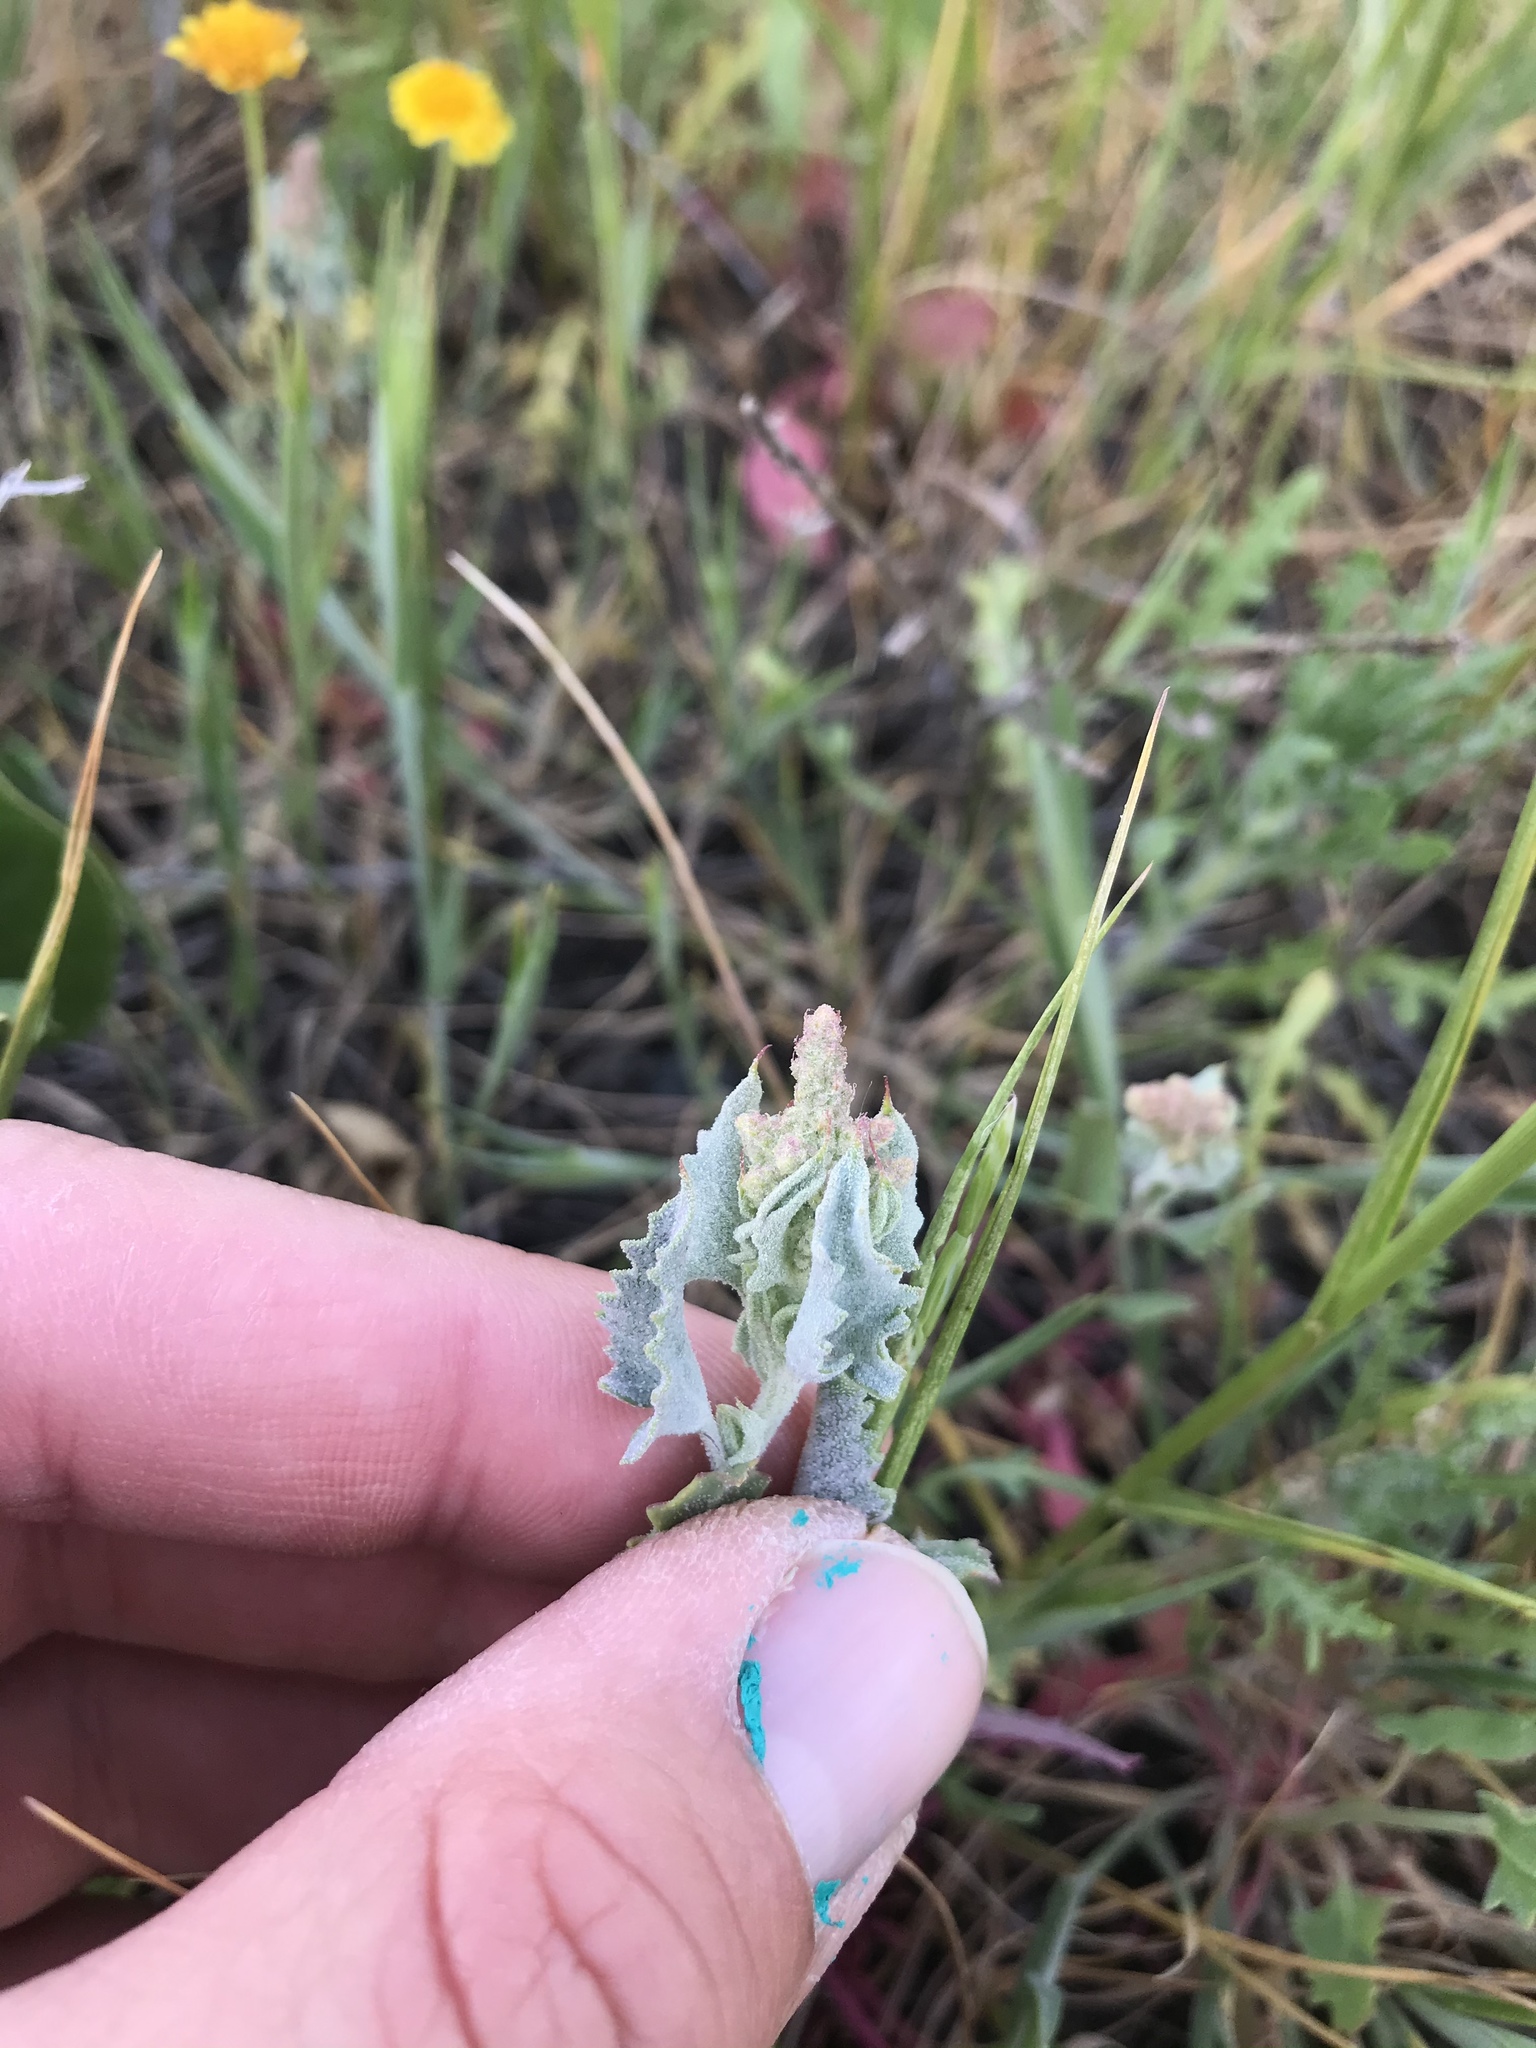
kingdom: Plantae
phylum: Tracheophyta
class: Magnoliopsida
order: Caryophyllales
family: Amaranthaceae
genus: Extriplex
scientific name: Extriplex joaquinana
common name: San joaquin saltbush
